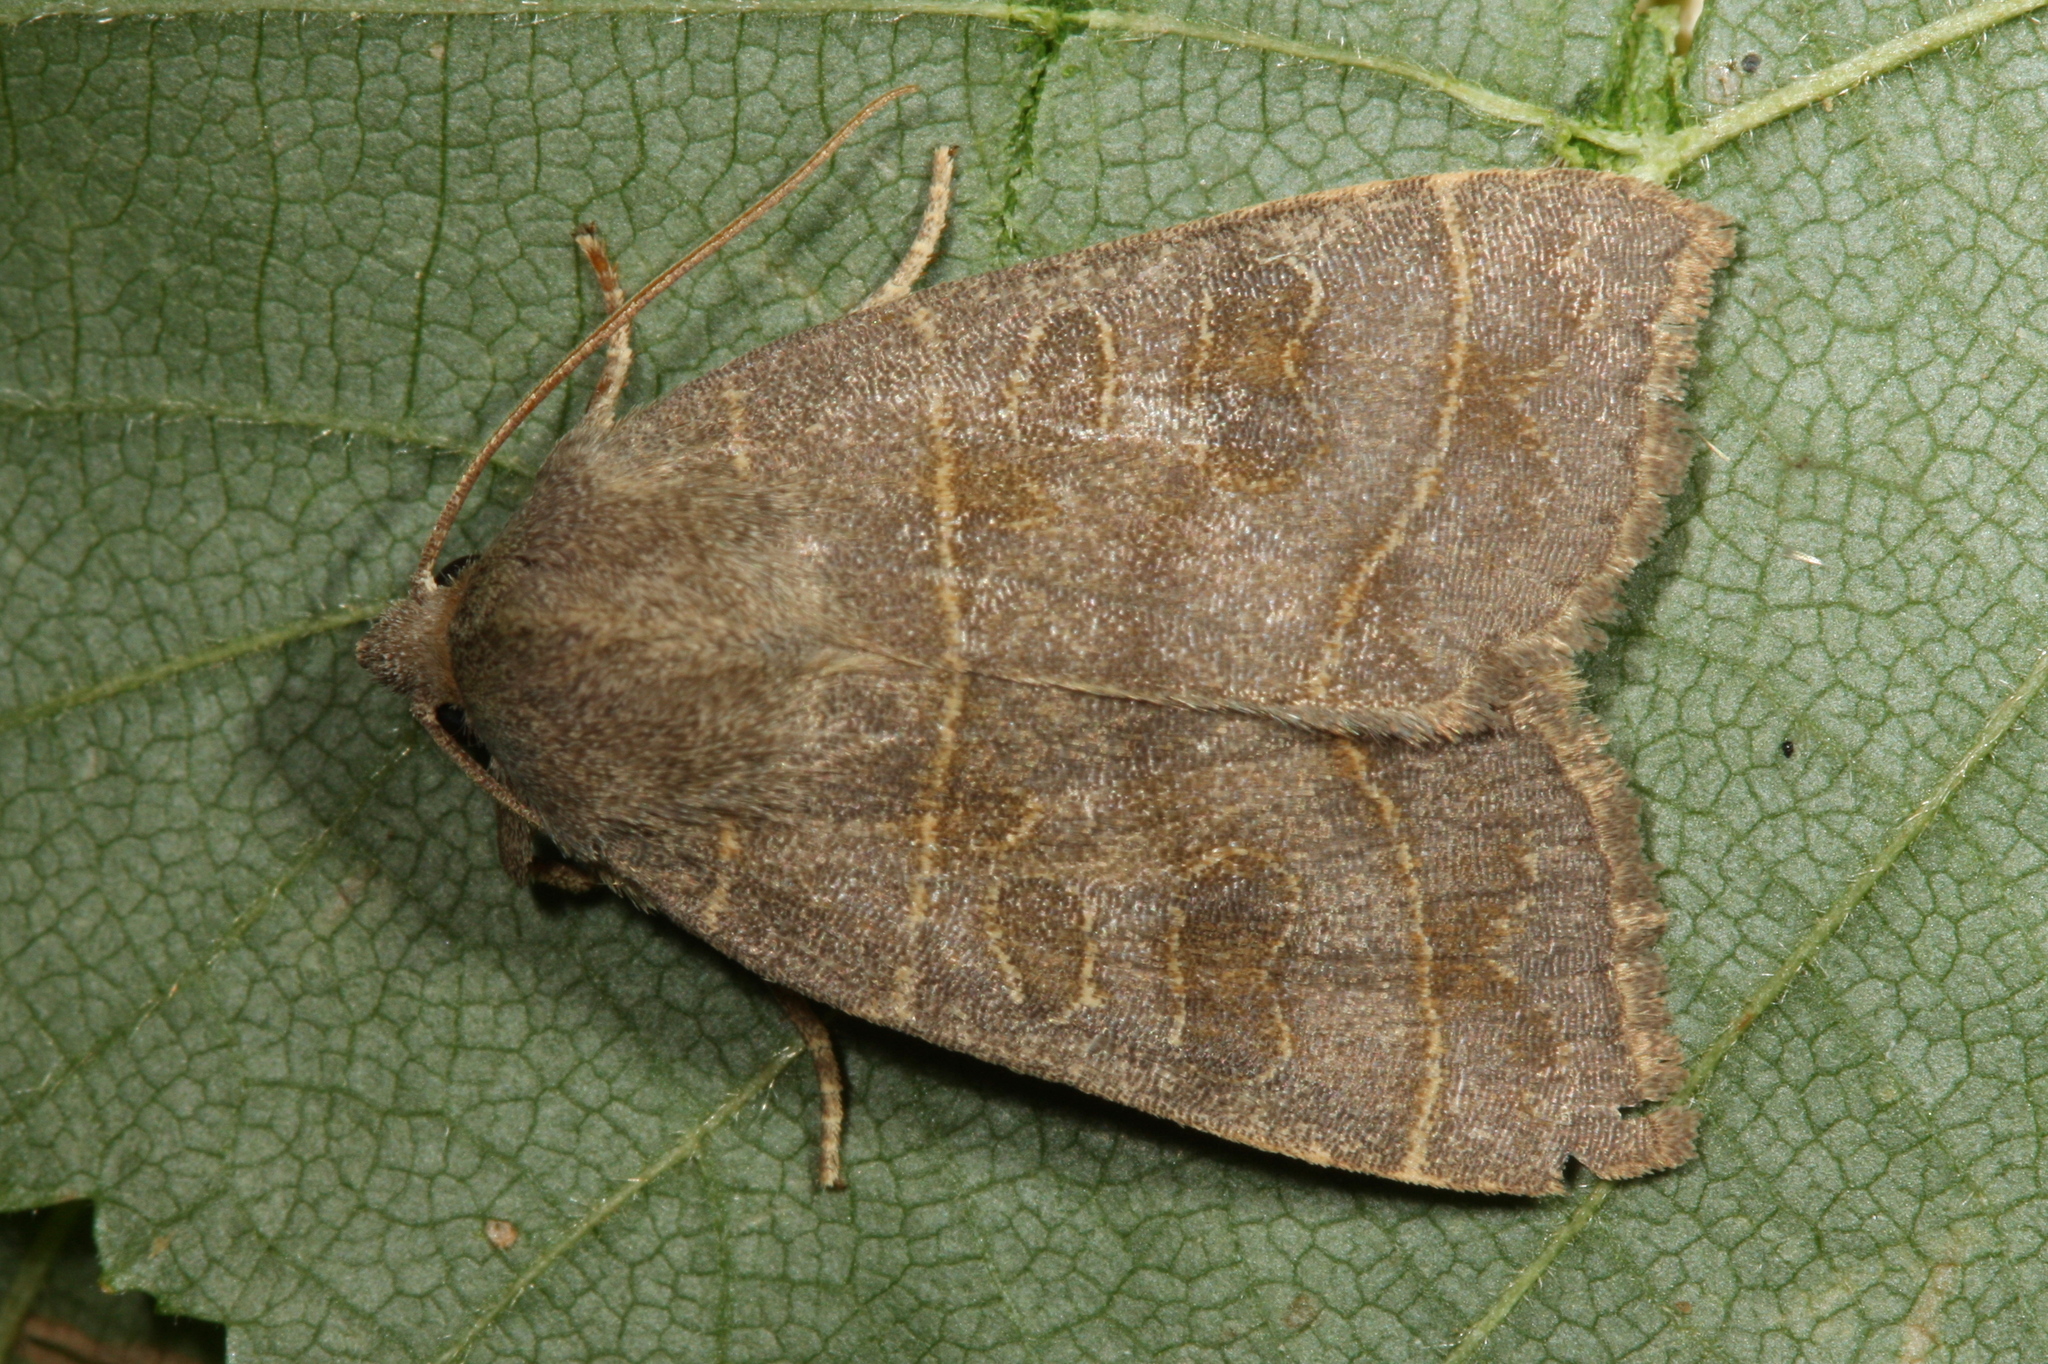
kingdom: Animalia
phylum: Arthropoda
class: Insecta
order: Lepidoptera
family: Noctuidae
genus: Ipimorpha
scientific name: Ipimorpha subtusa
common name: Olive
